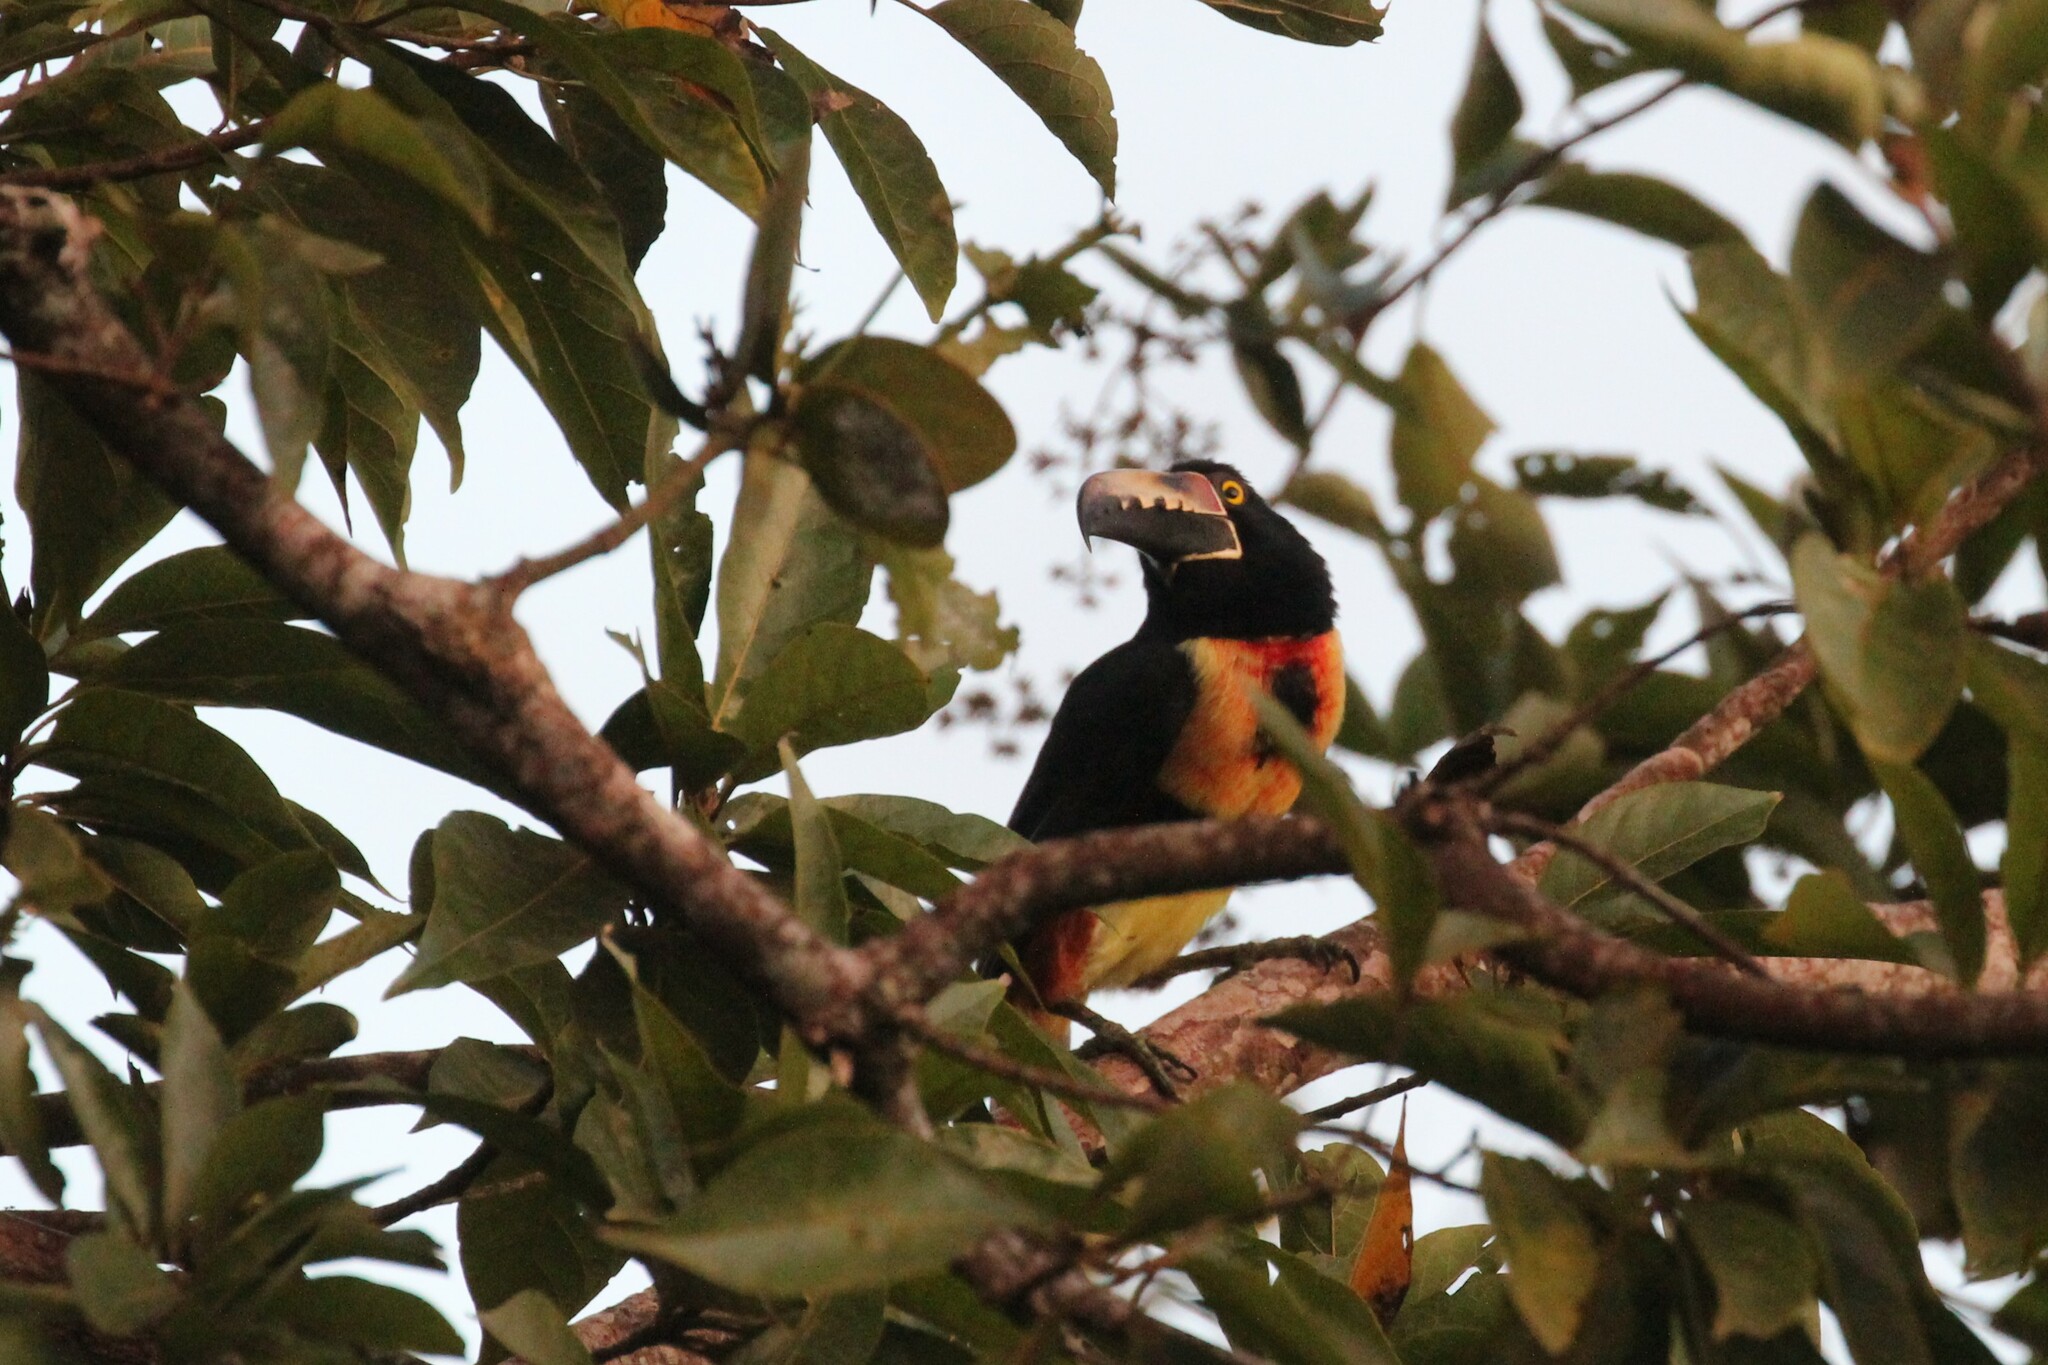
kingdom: Animalia
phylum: Chordata
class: Aves
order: Piciformes
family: Ramphastidae
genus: Pteroglossus
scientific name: Pteroglossus torquatus
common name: Collared aracari
